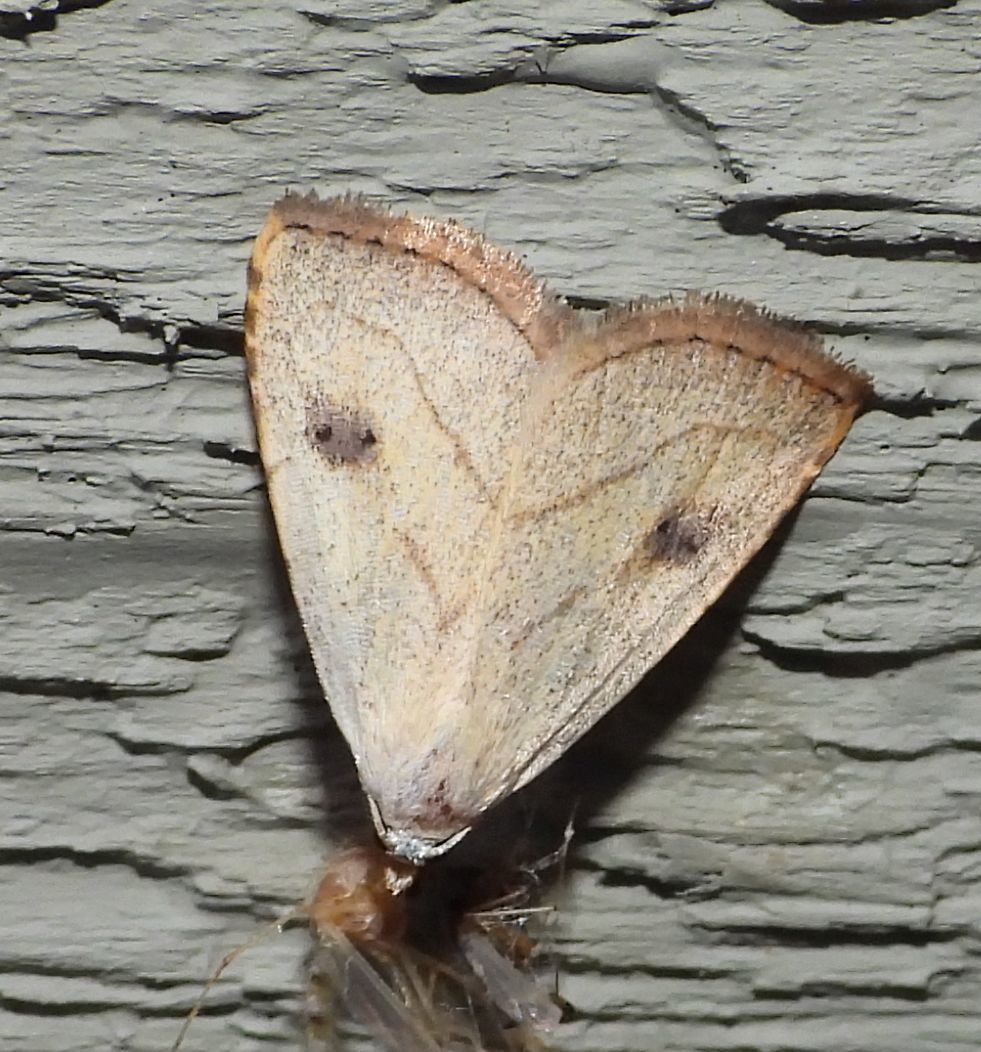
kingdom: Animalia
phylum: Arthropoda
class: Insecta
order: Lepidoptera
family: Erebidae
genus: Rivula
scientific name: Rivula propinqualis
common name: Spotted grass moth
